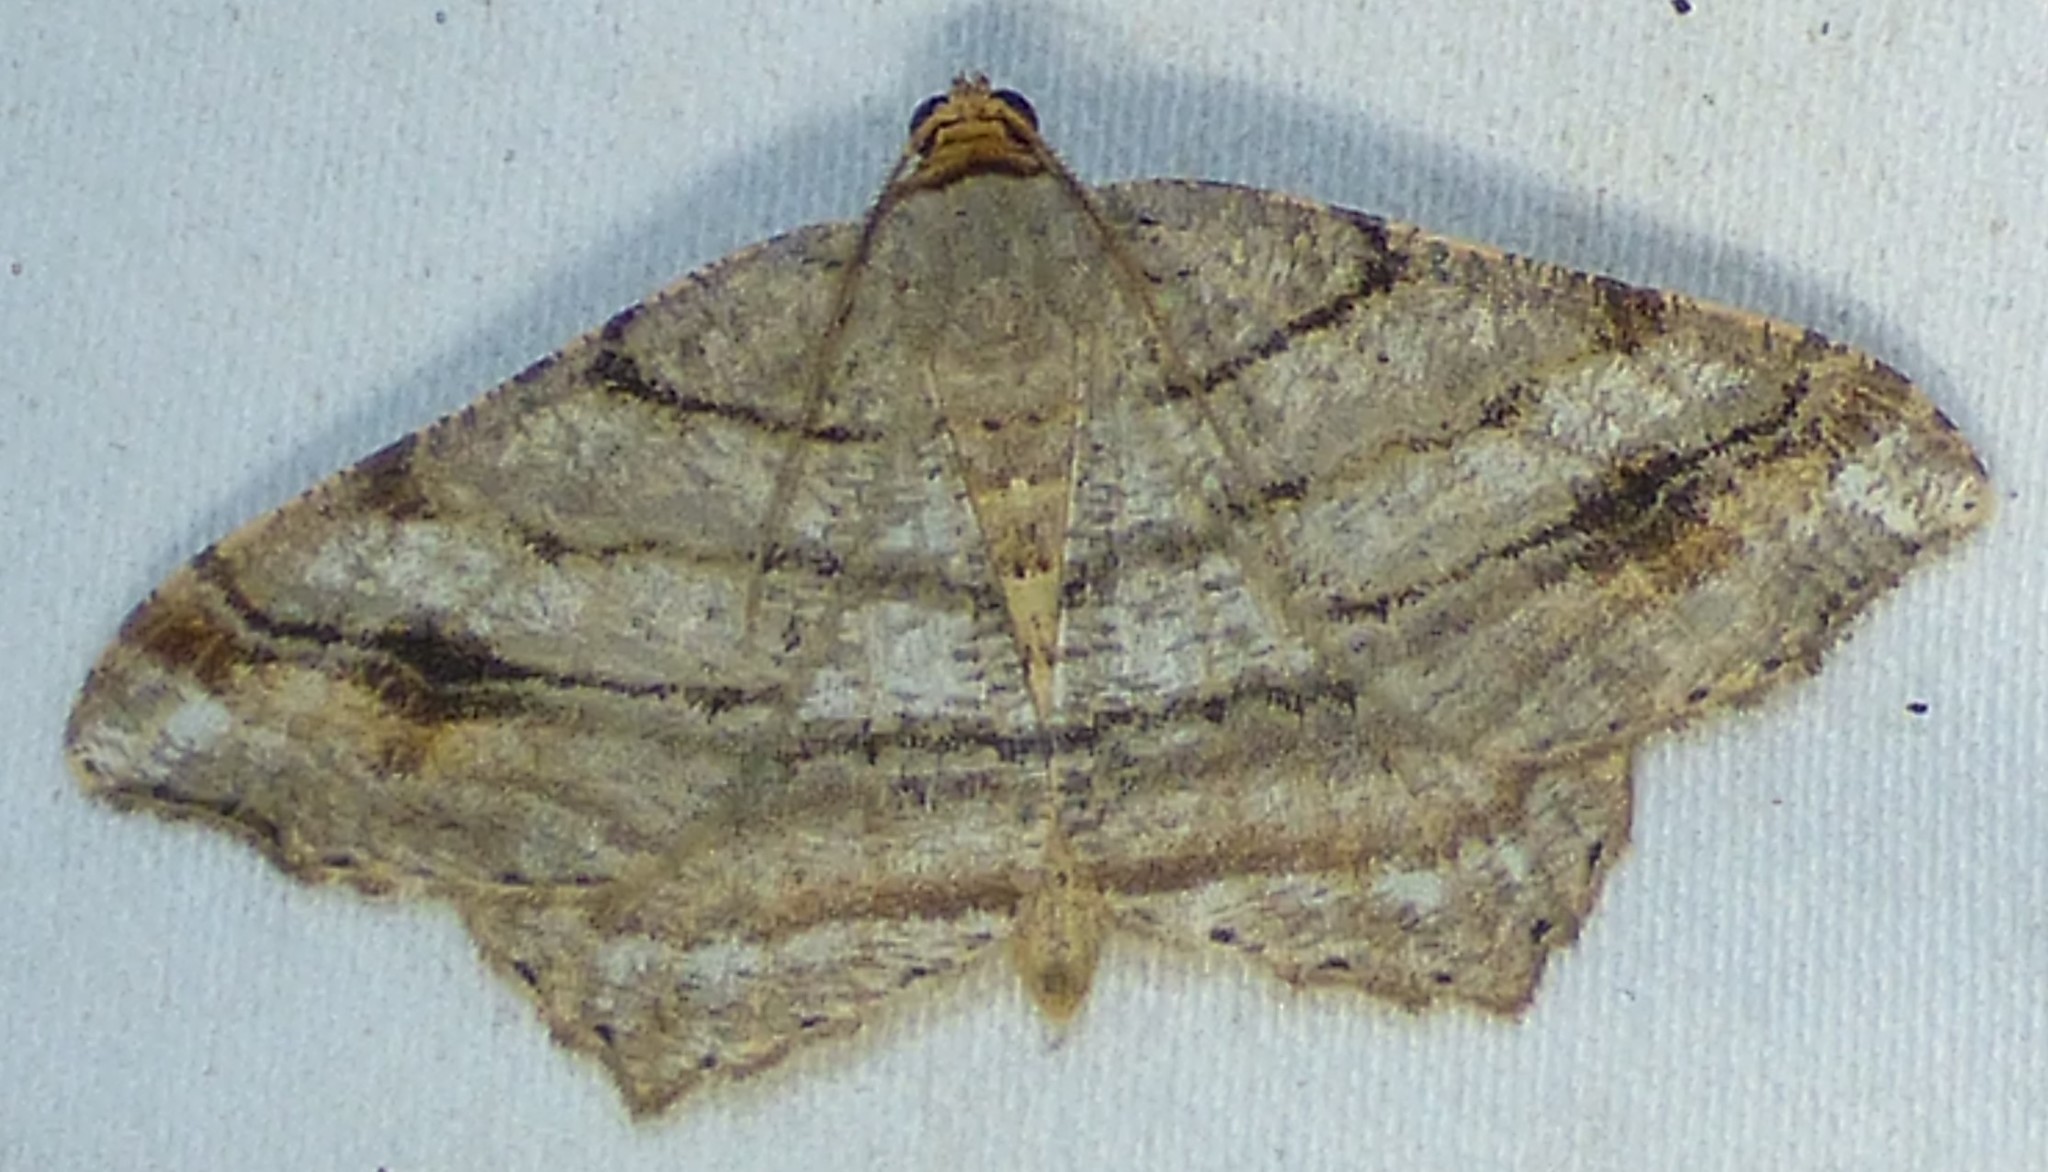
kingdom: Animalia
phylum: Arthropoda
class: Insecta
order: Lepidoptera
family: Geometridae
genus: Macaria
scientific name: Macaria multilineata
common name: Many-lined angle
